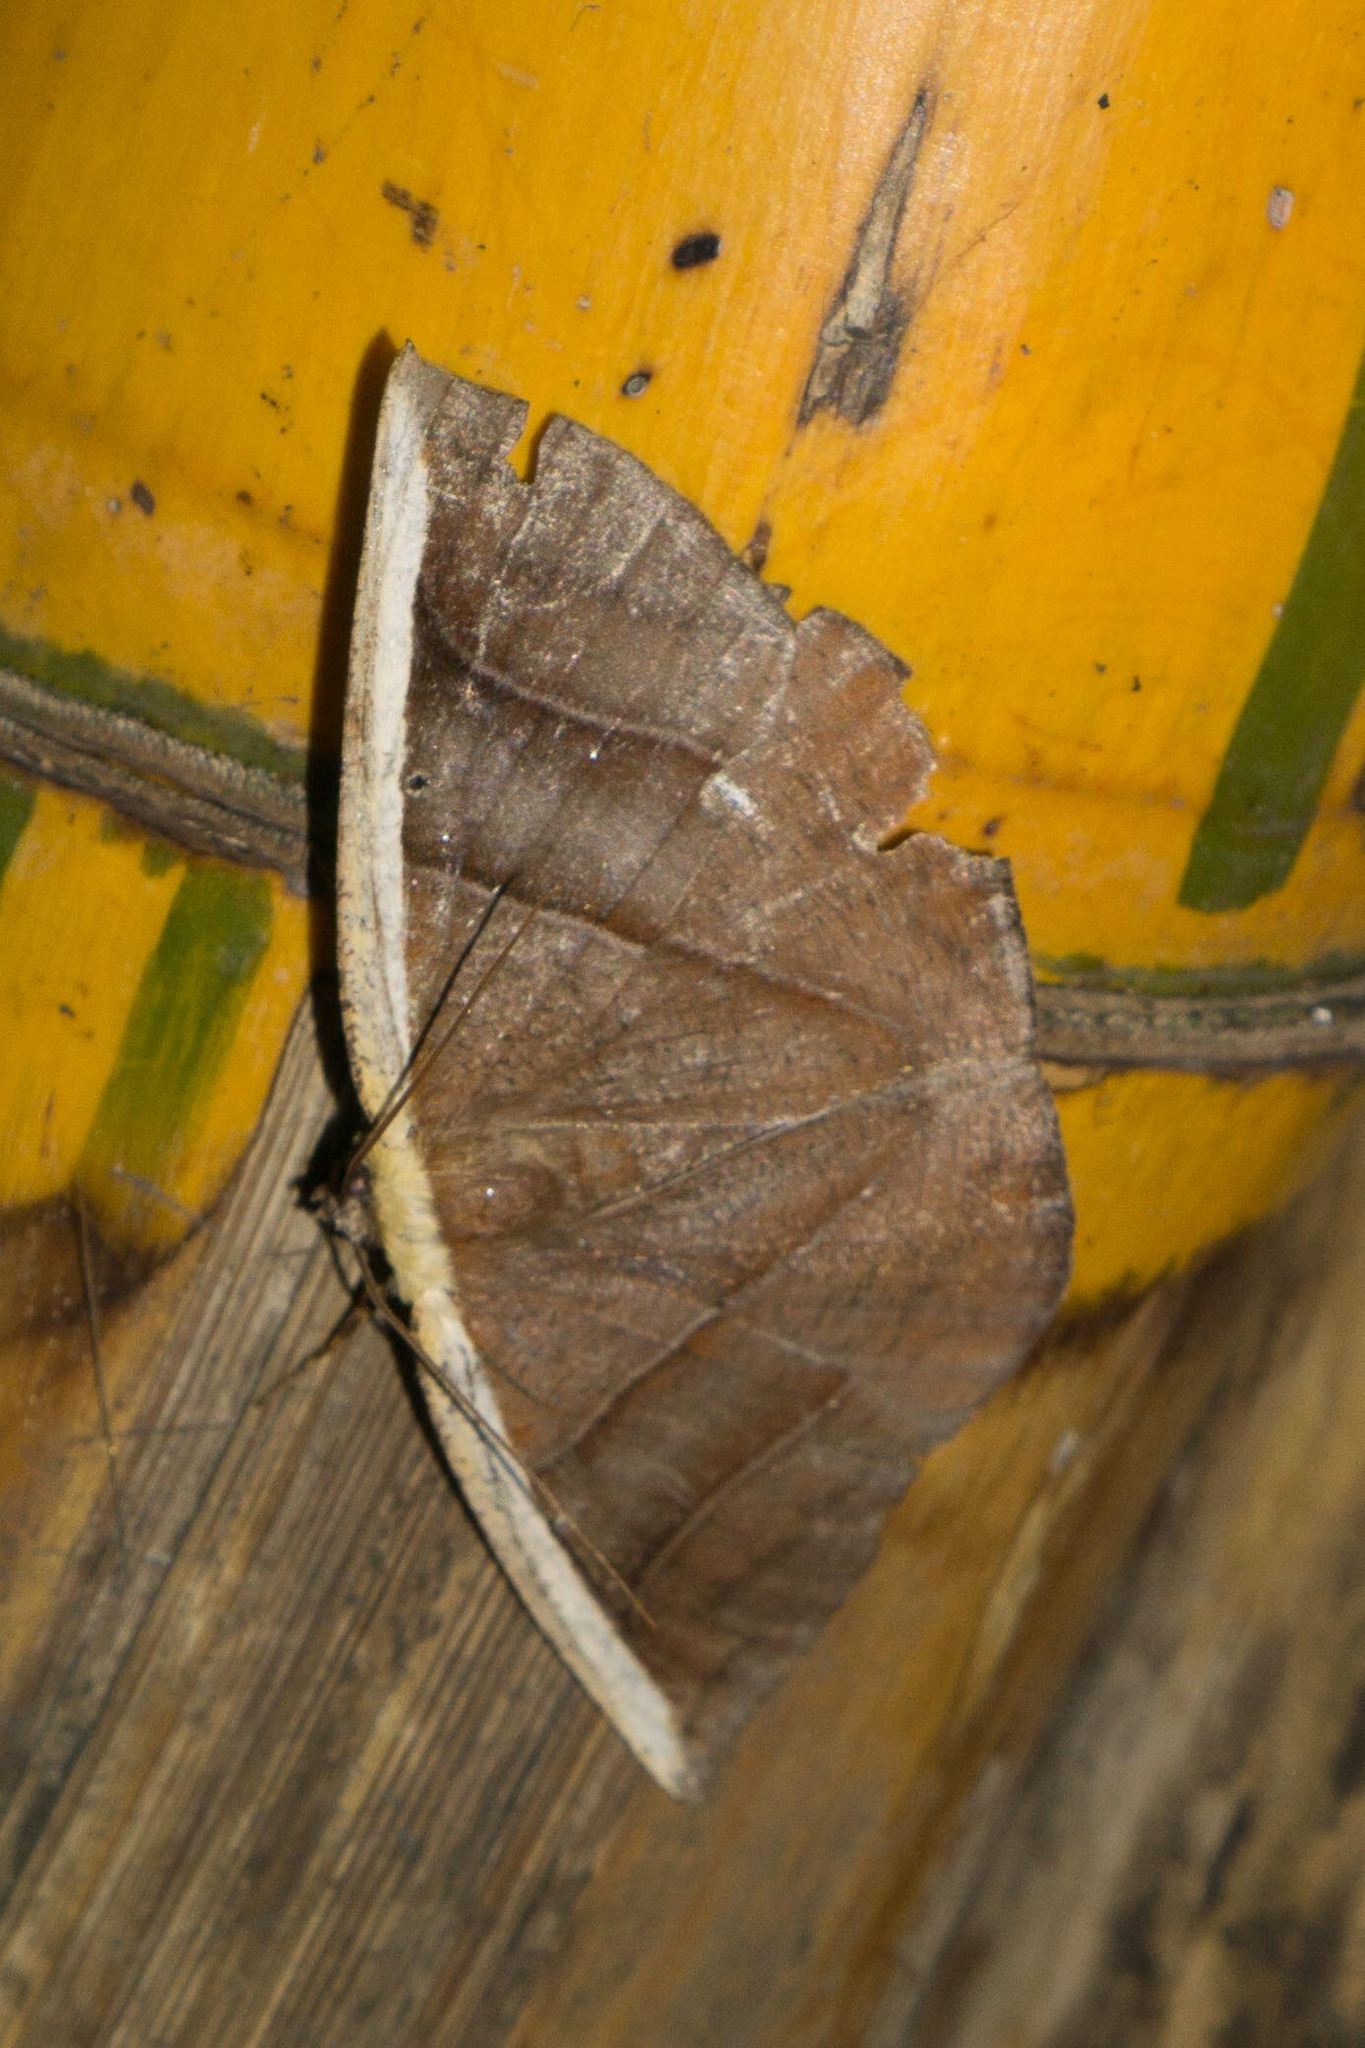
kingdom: Animalia
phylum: Arthropoda
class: Insecta
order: Lepidoptera
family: Geometridae
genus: Cimicodes
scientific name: Cimicodes purpurea
